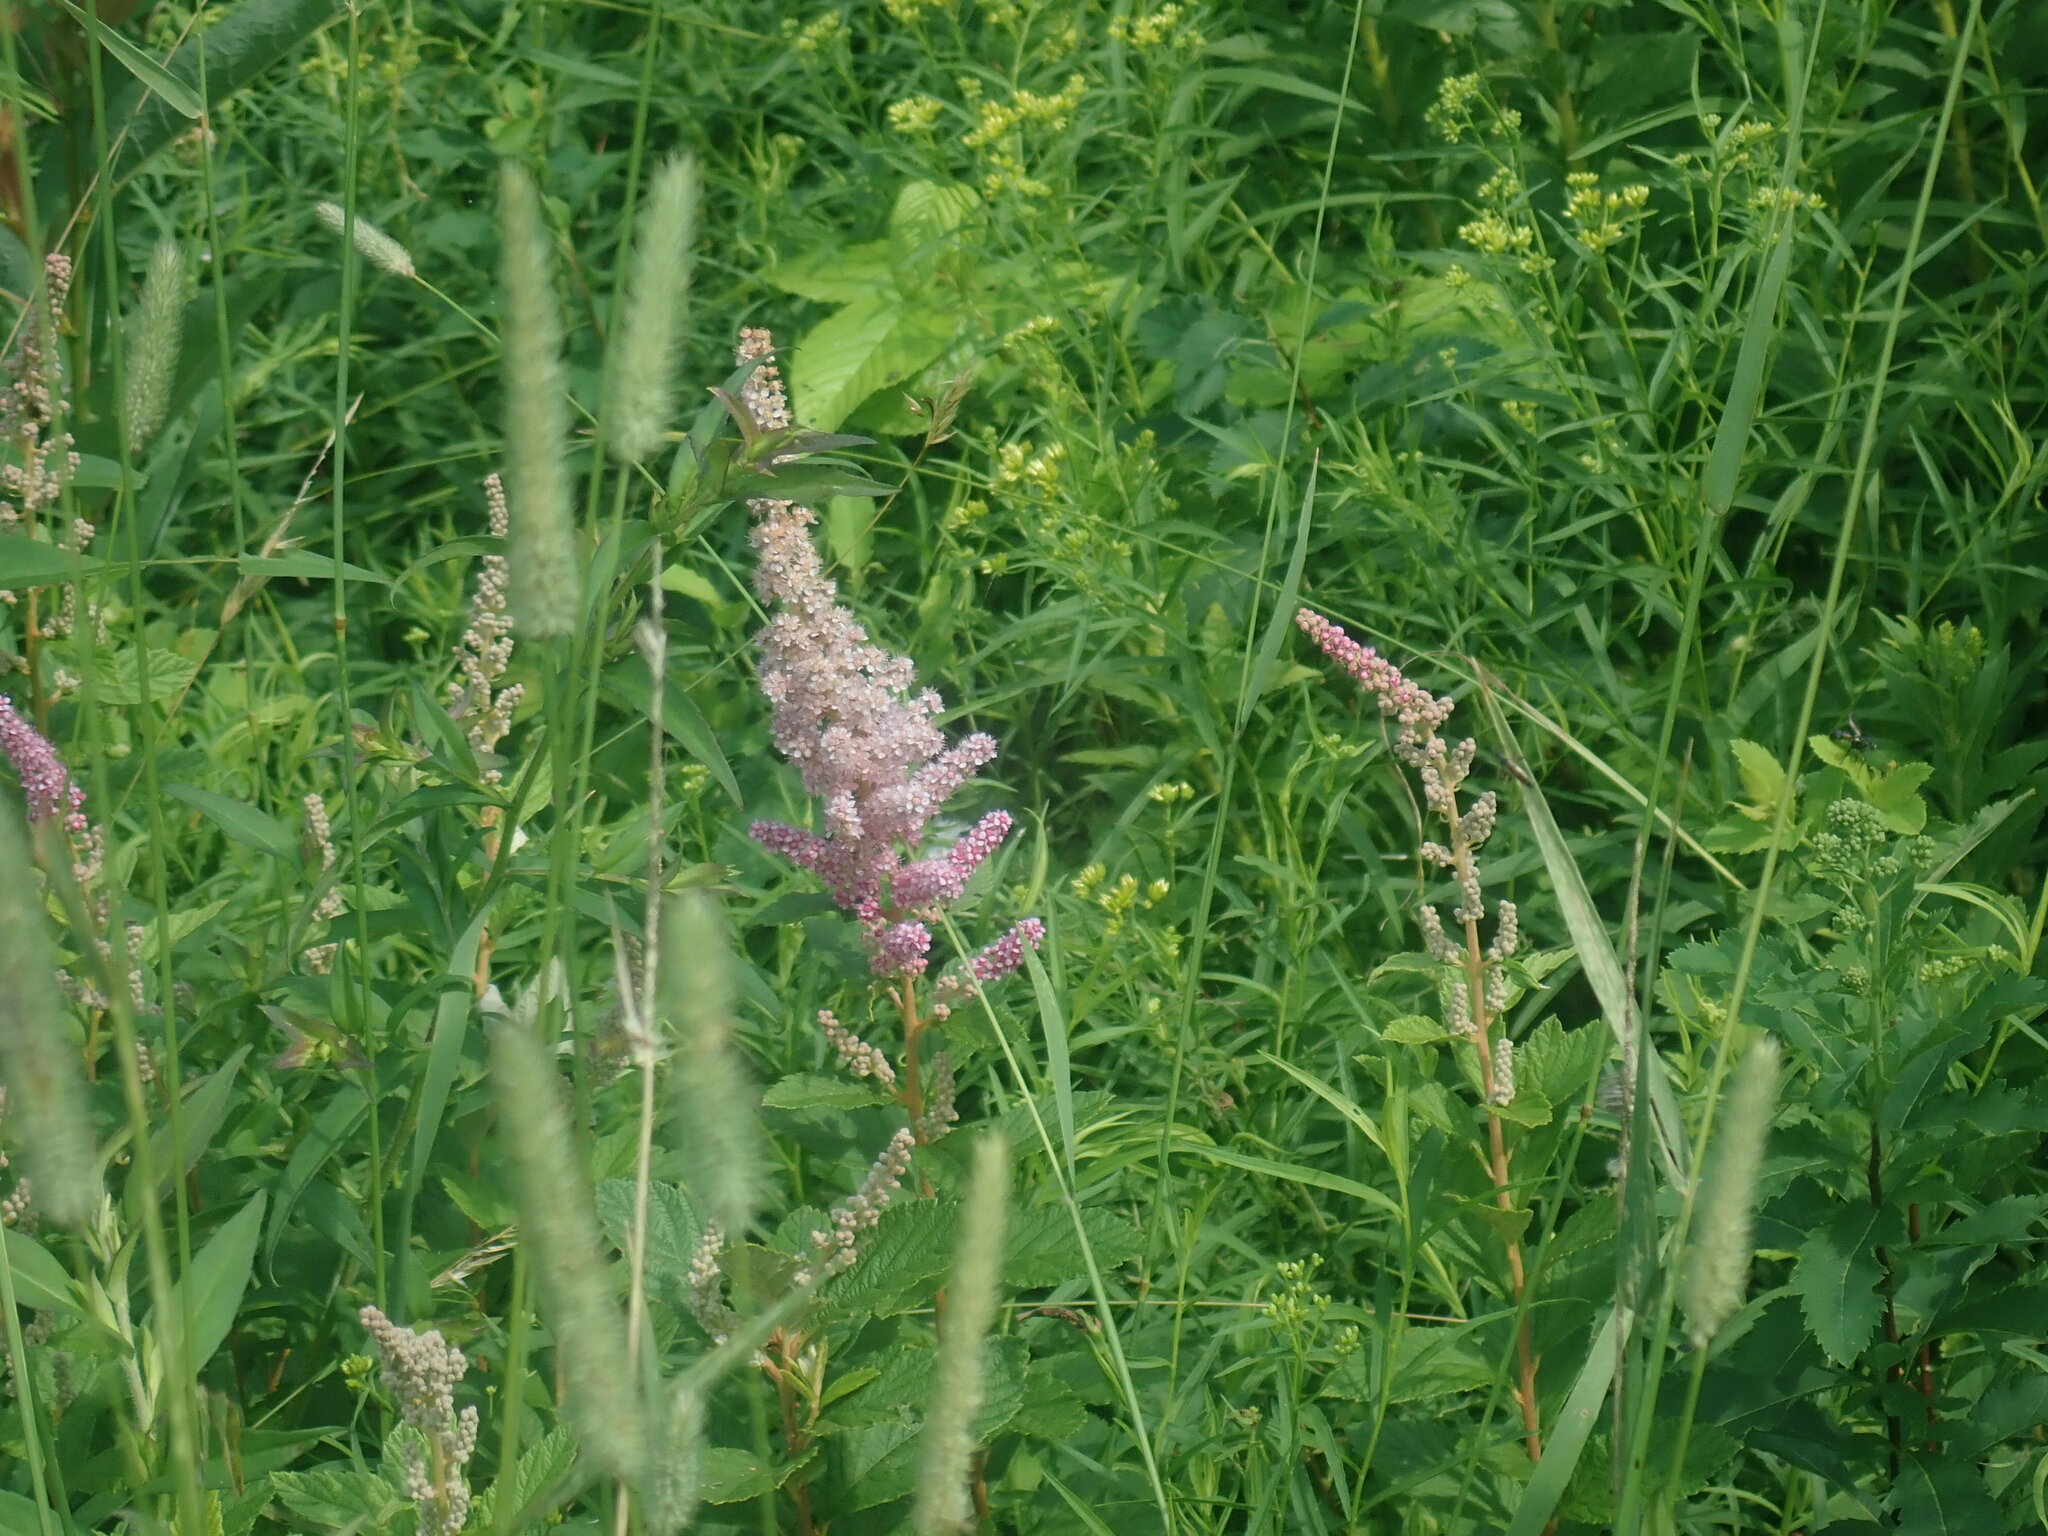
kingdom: Plantae
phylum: Tracheophyta
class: Magnoliopsida
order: Rosales
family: Rosaceae
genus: Spiraea
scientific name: Spiraea tomentosa
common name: Hardhack
